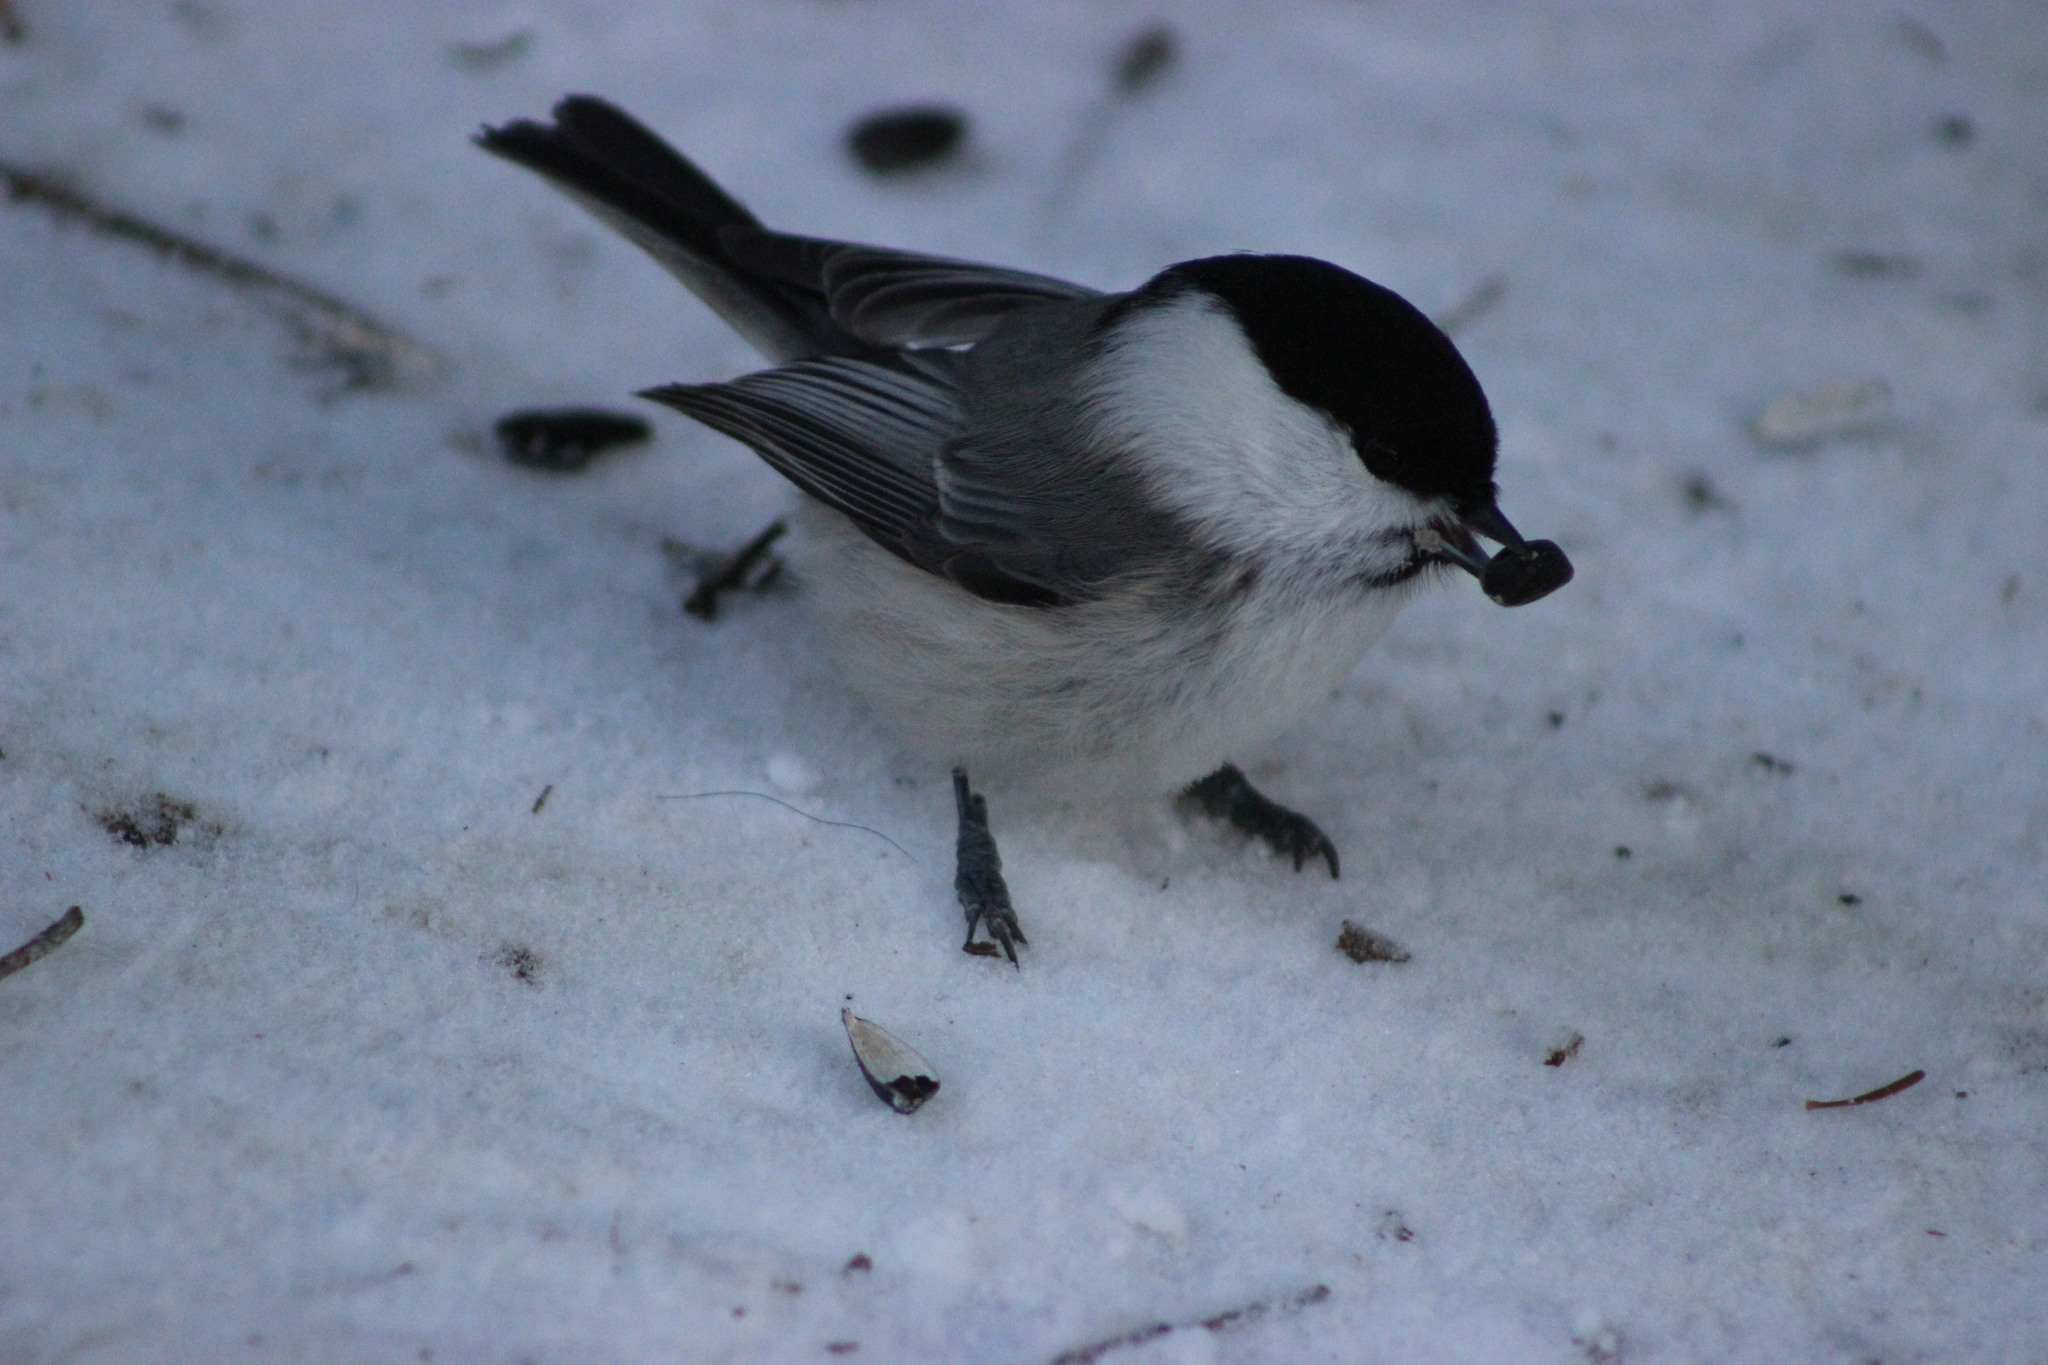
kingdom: Animalia
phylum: Chordata
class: Aves
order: Passeriformes
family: Paridae
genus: Poecile
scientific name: Poecile montanus
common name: Willow tit
